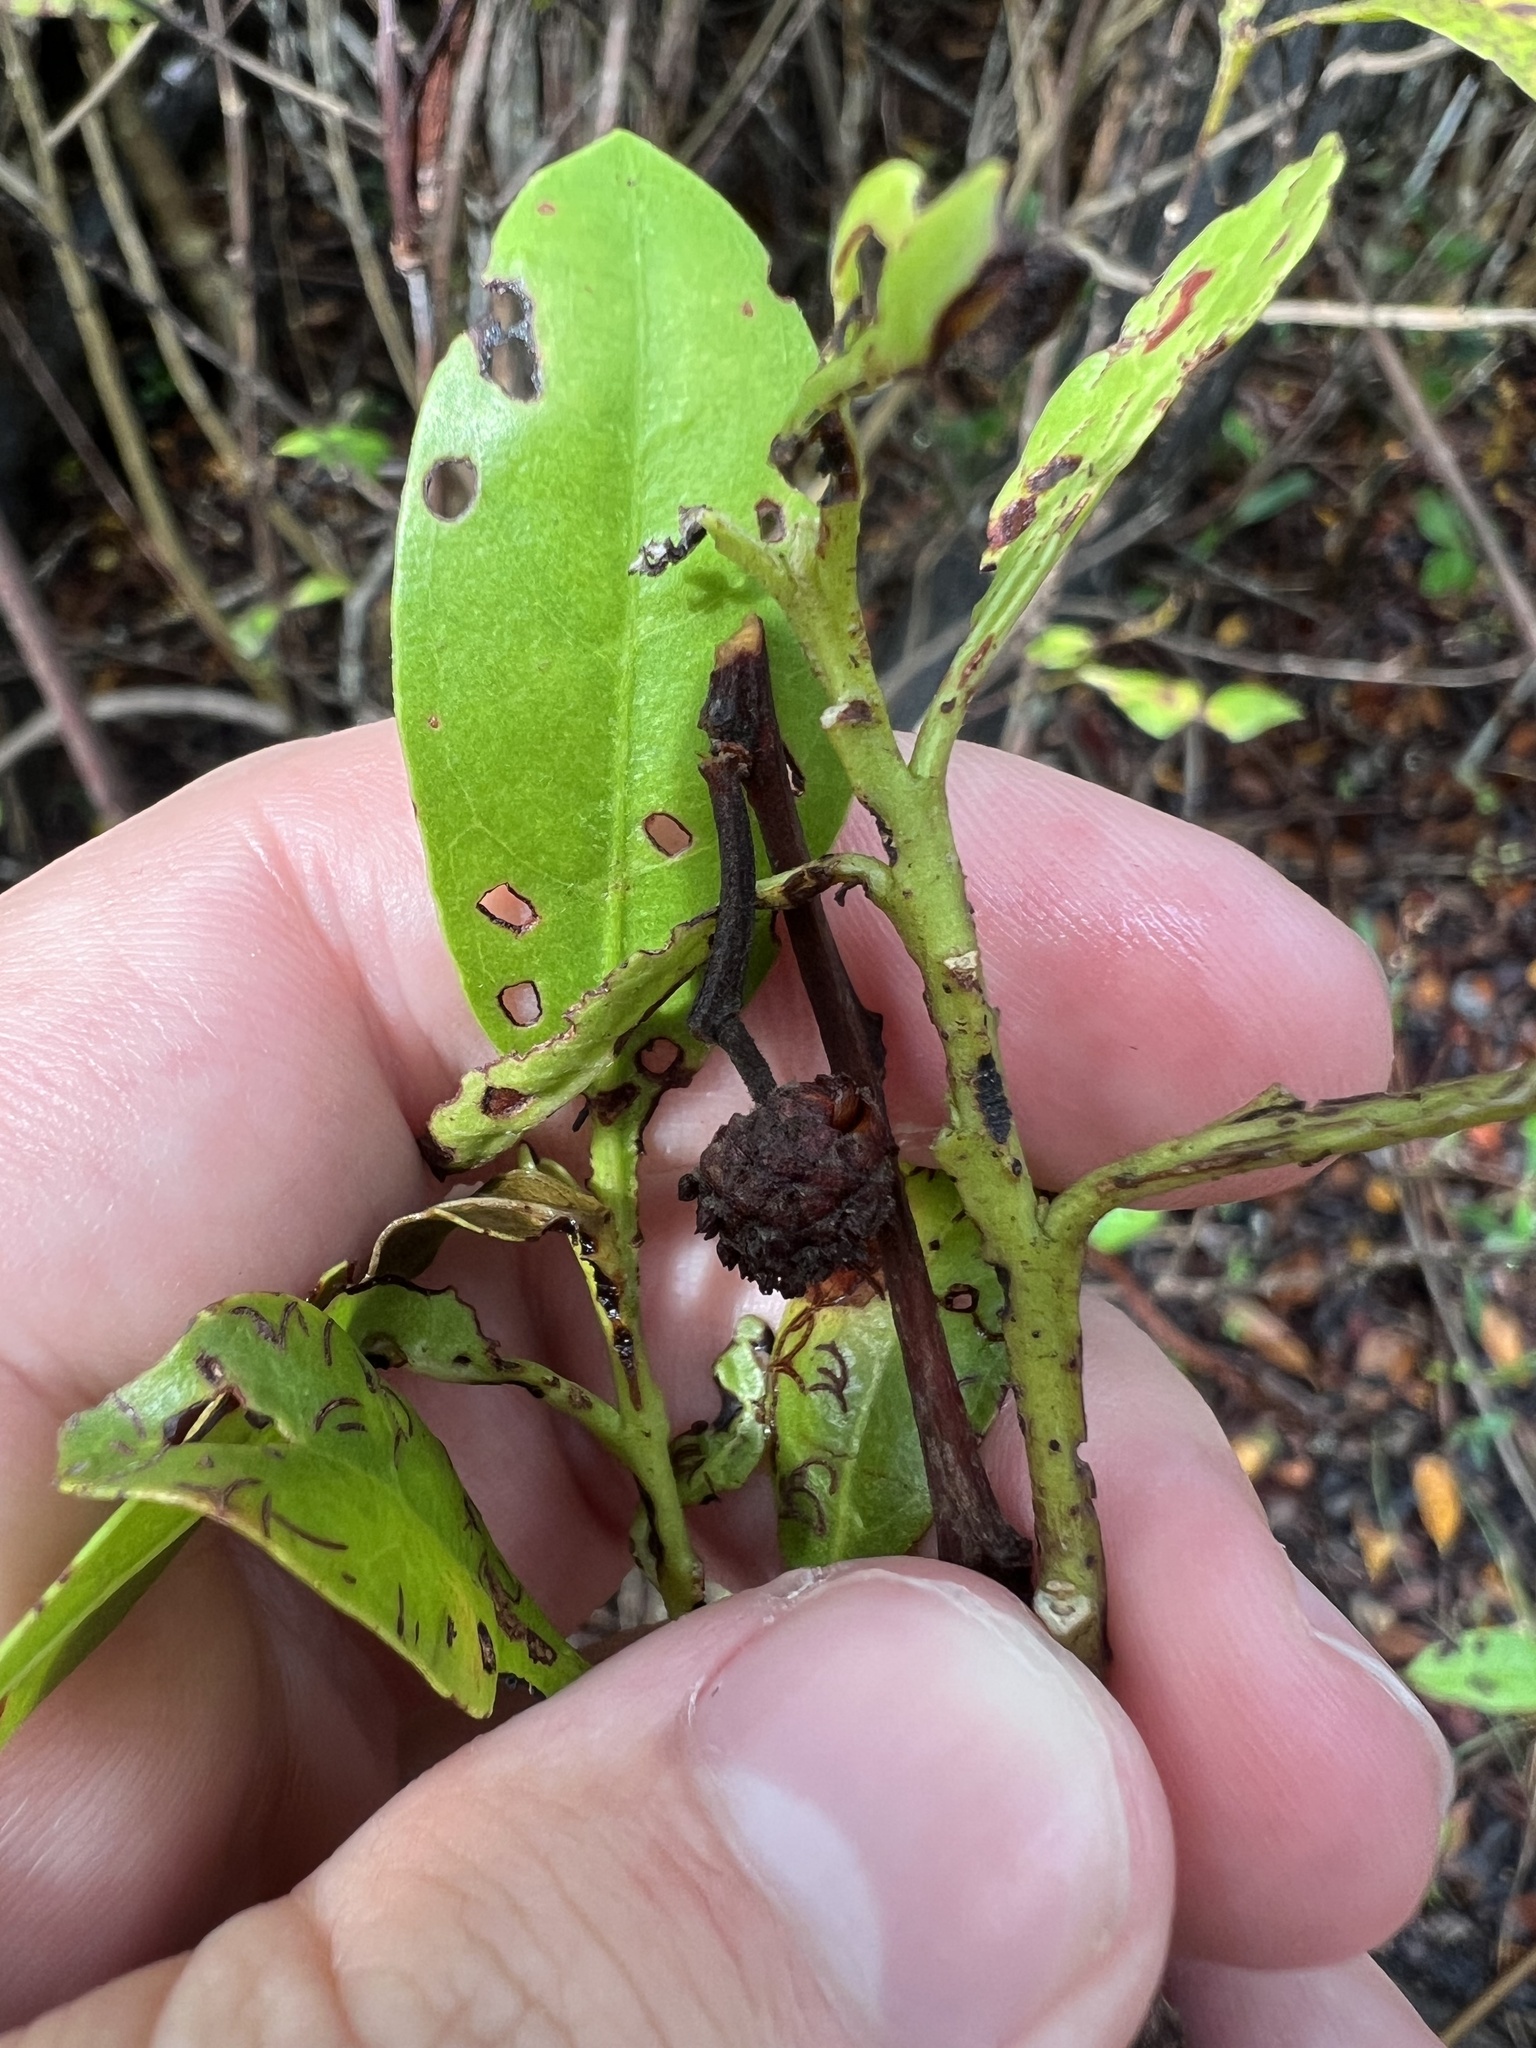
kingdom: Plantae
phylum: Tracheophyta
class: Magnoliopsida
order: Myrtales
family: Combretaceae
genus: Conocarpus
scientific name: Conocarpus erectus
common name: Button mangrove
